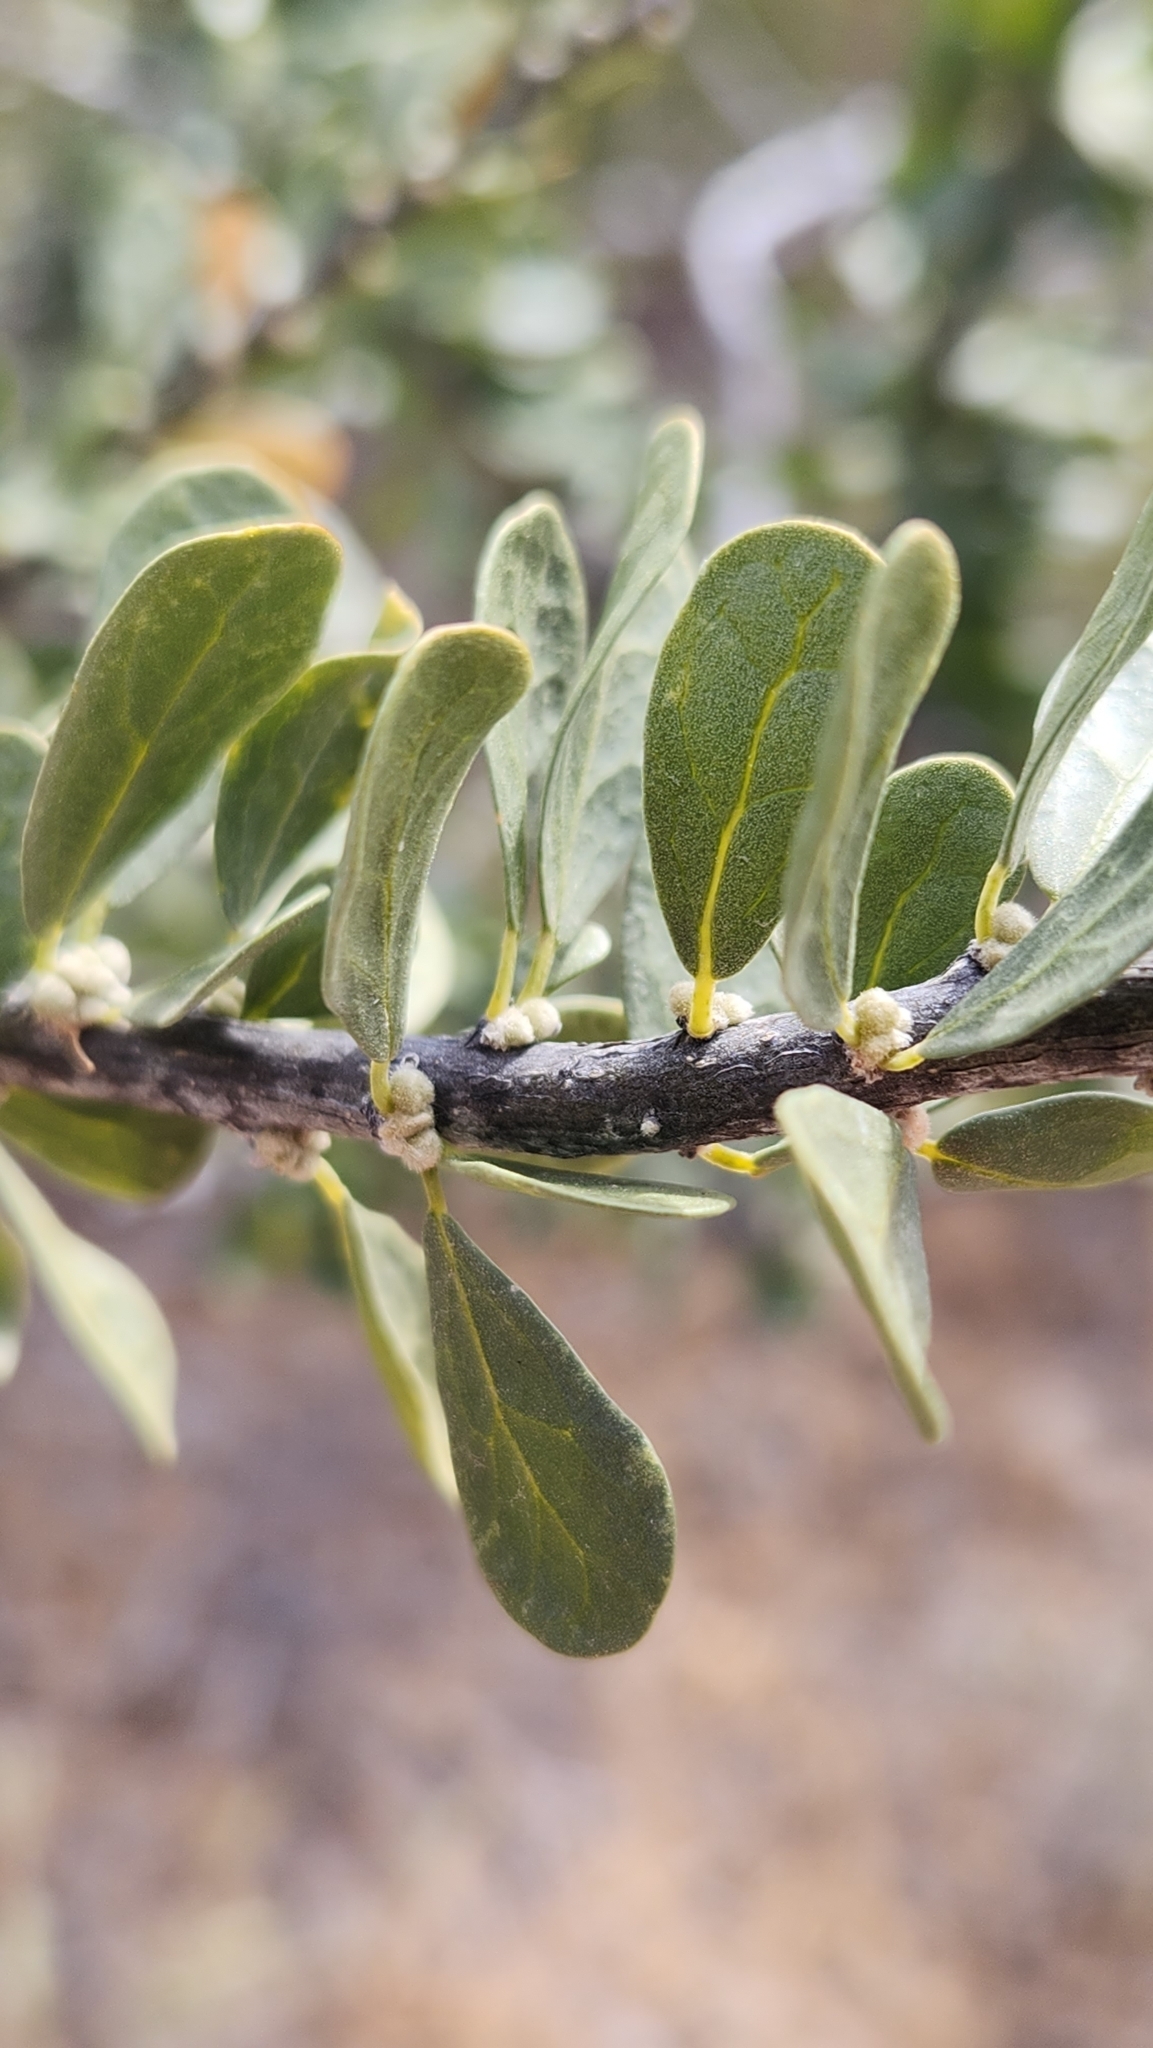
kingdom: Plantae
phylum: Tracheophyta
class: Magnoliopsida
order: Malpighiales
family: Euphorbiaceae
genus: Adelia
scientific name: Adelia brandegeei
